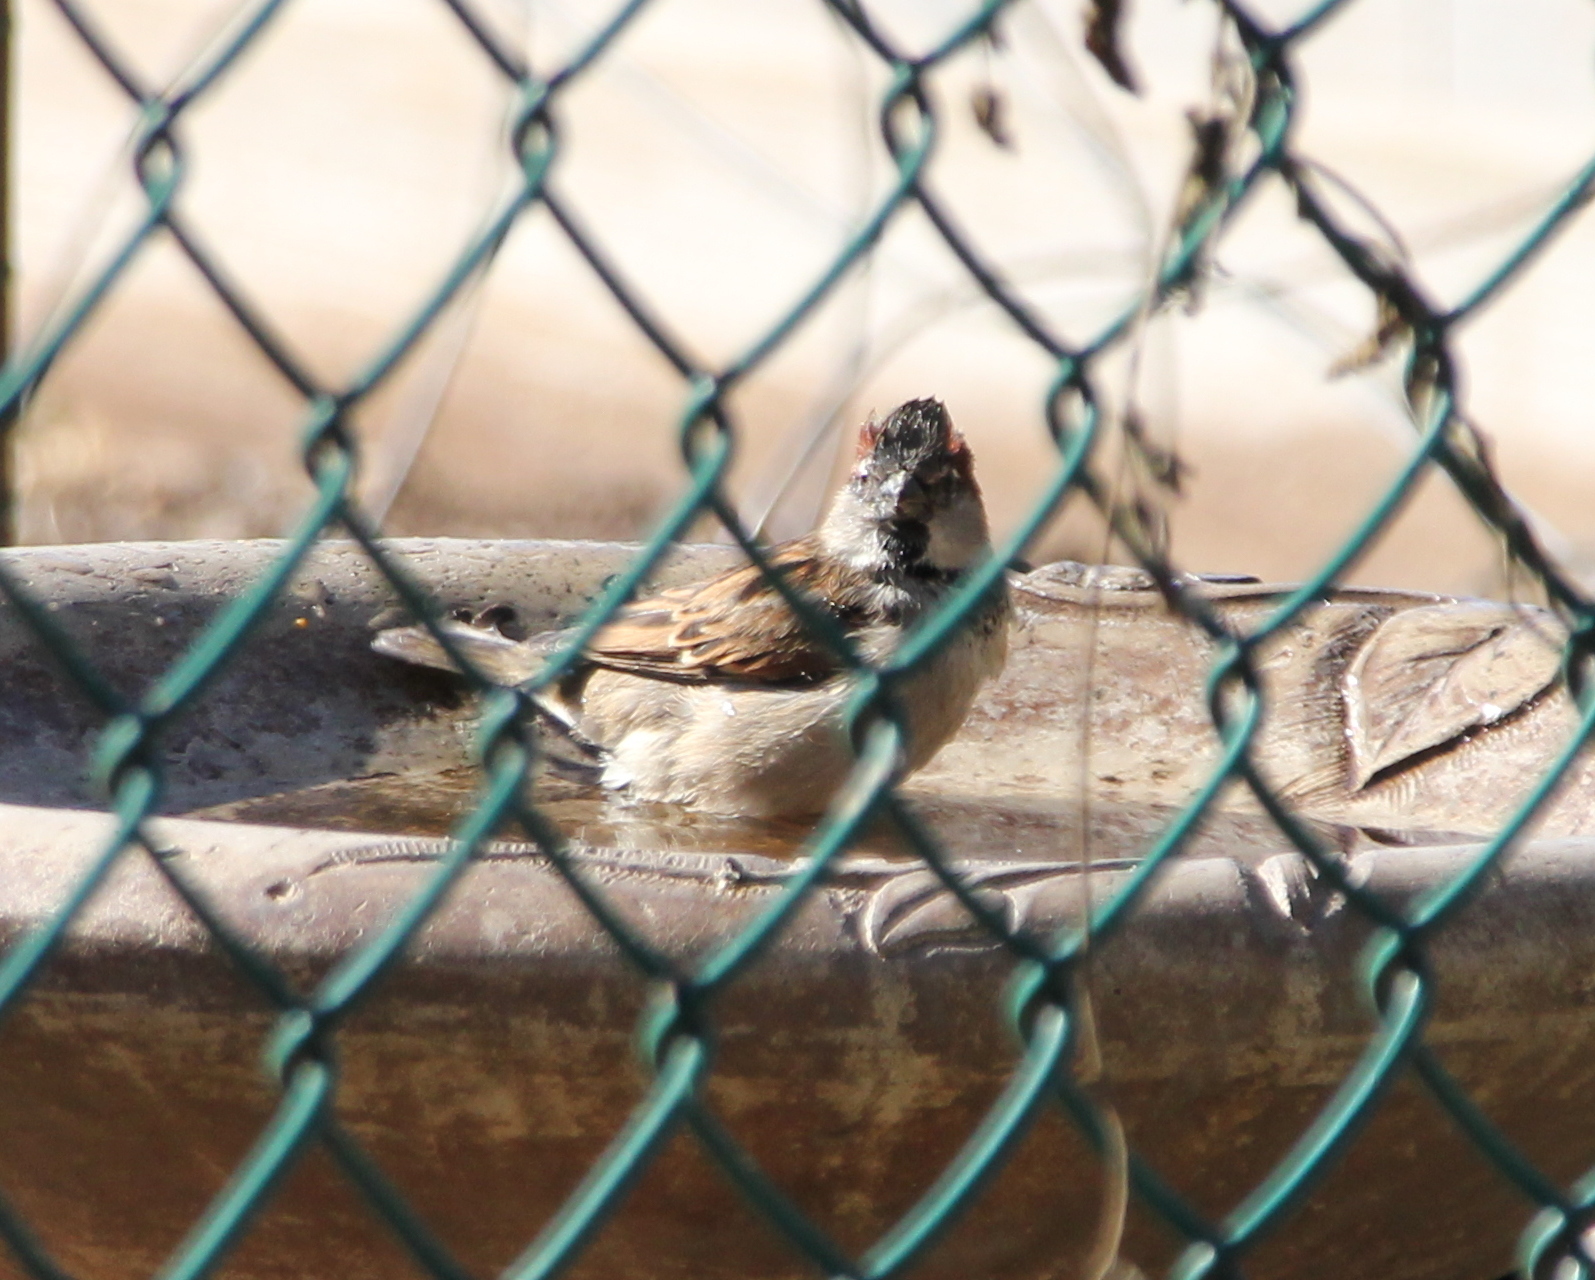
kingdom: Animalia
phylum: Chordata
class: Aves
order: Passeriformes
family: Passeridae
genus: Passer
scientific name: Passer domesticus
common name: House sparrow
